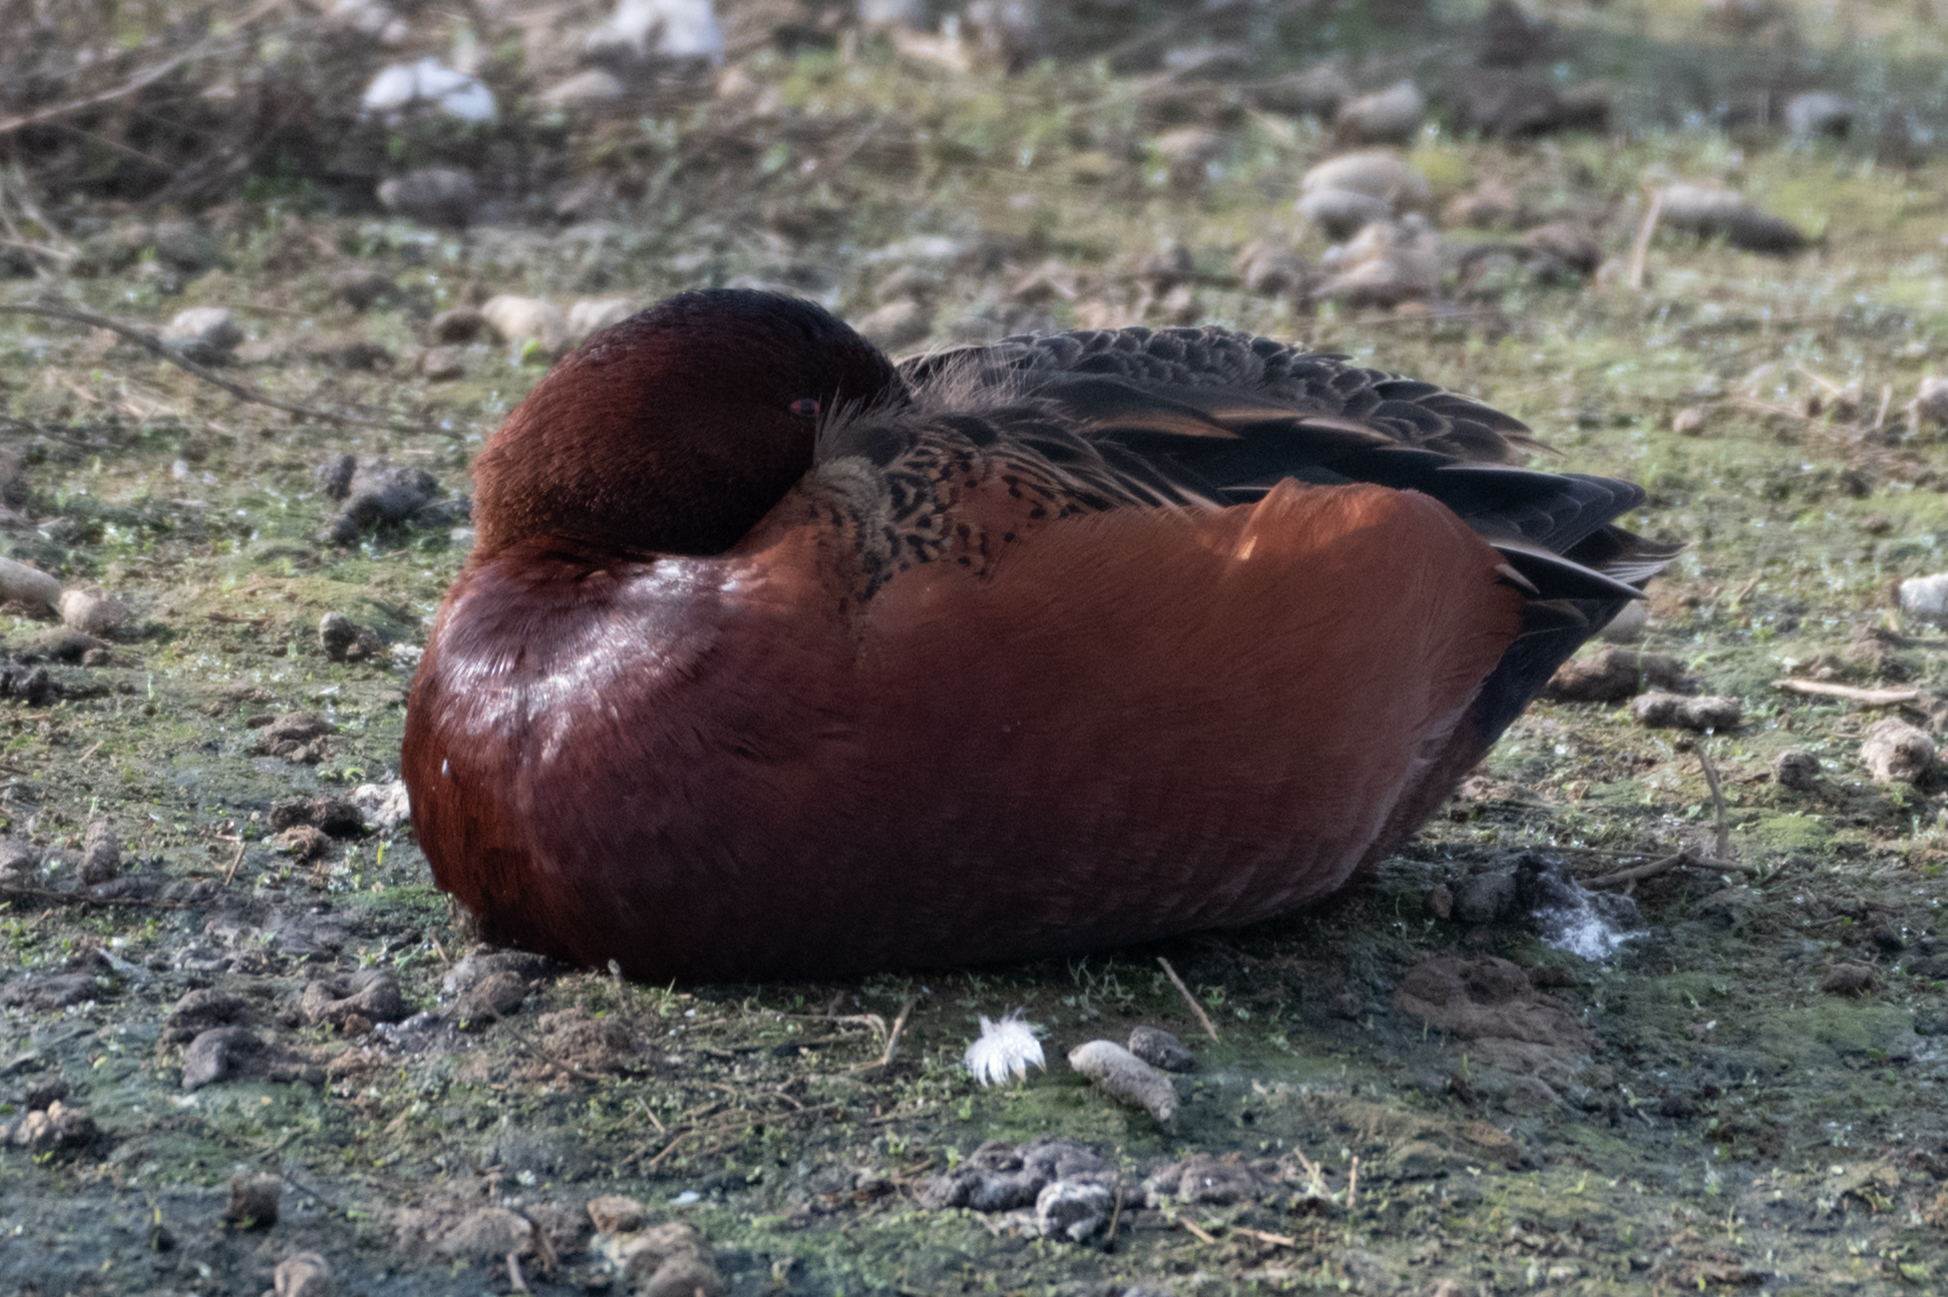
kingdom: Animalia
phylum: Chordata
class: Aves
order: Anseriformes
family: Anatidae
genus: Spatula
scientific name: Spatula cyanoptera
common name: Cinnamon teal
